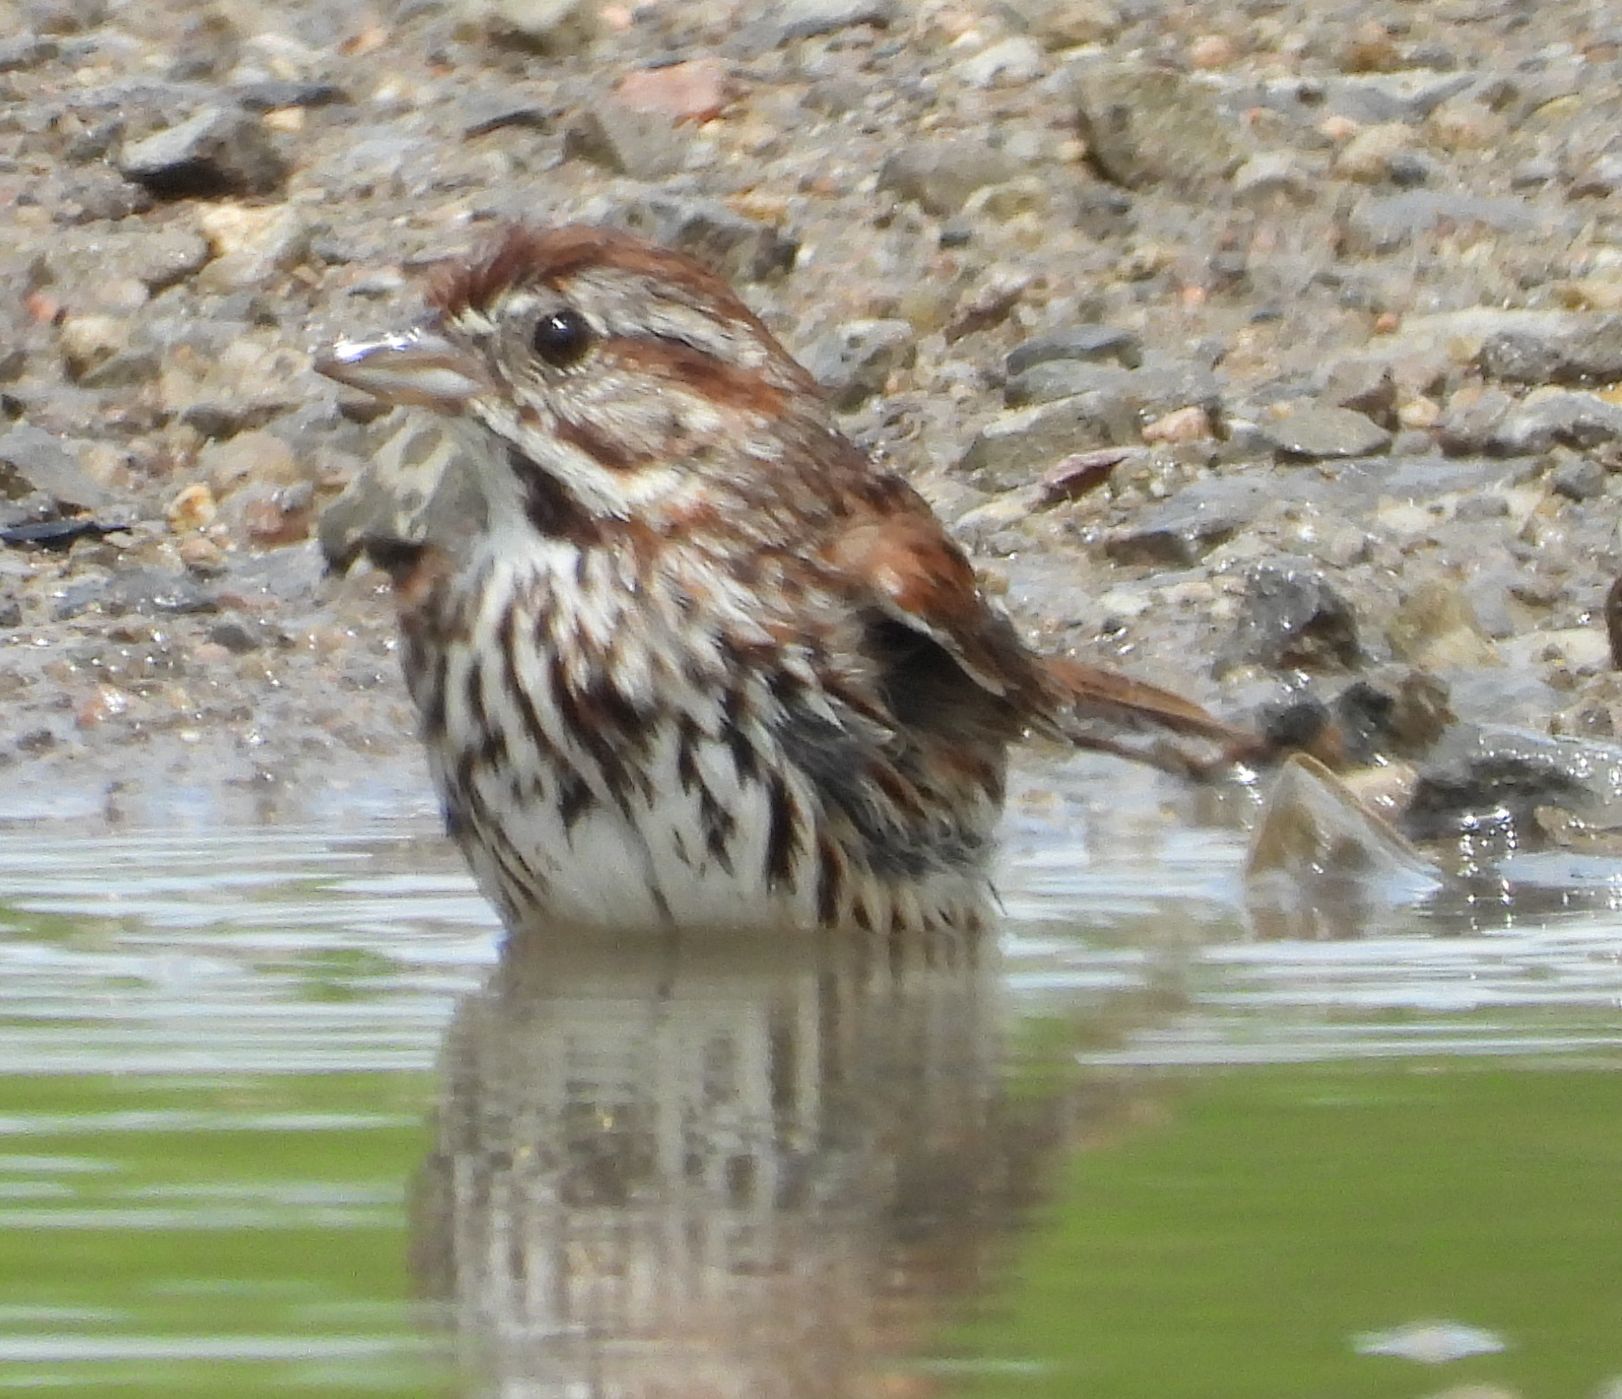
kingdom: Animalia
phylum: Chordata
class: Aves
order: Passeriformes
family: Passerellidae
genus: Melospiza
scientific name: Melospiza melodia
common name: Song sparrow
